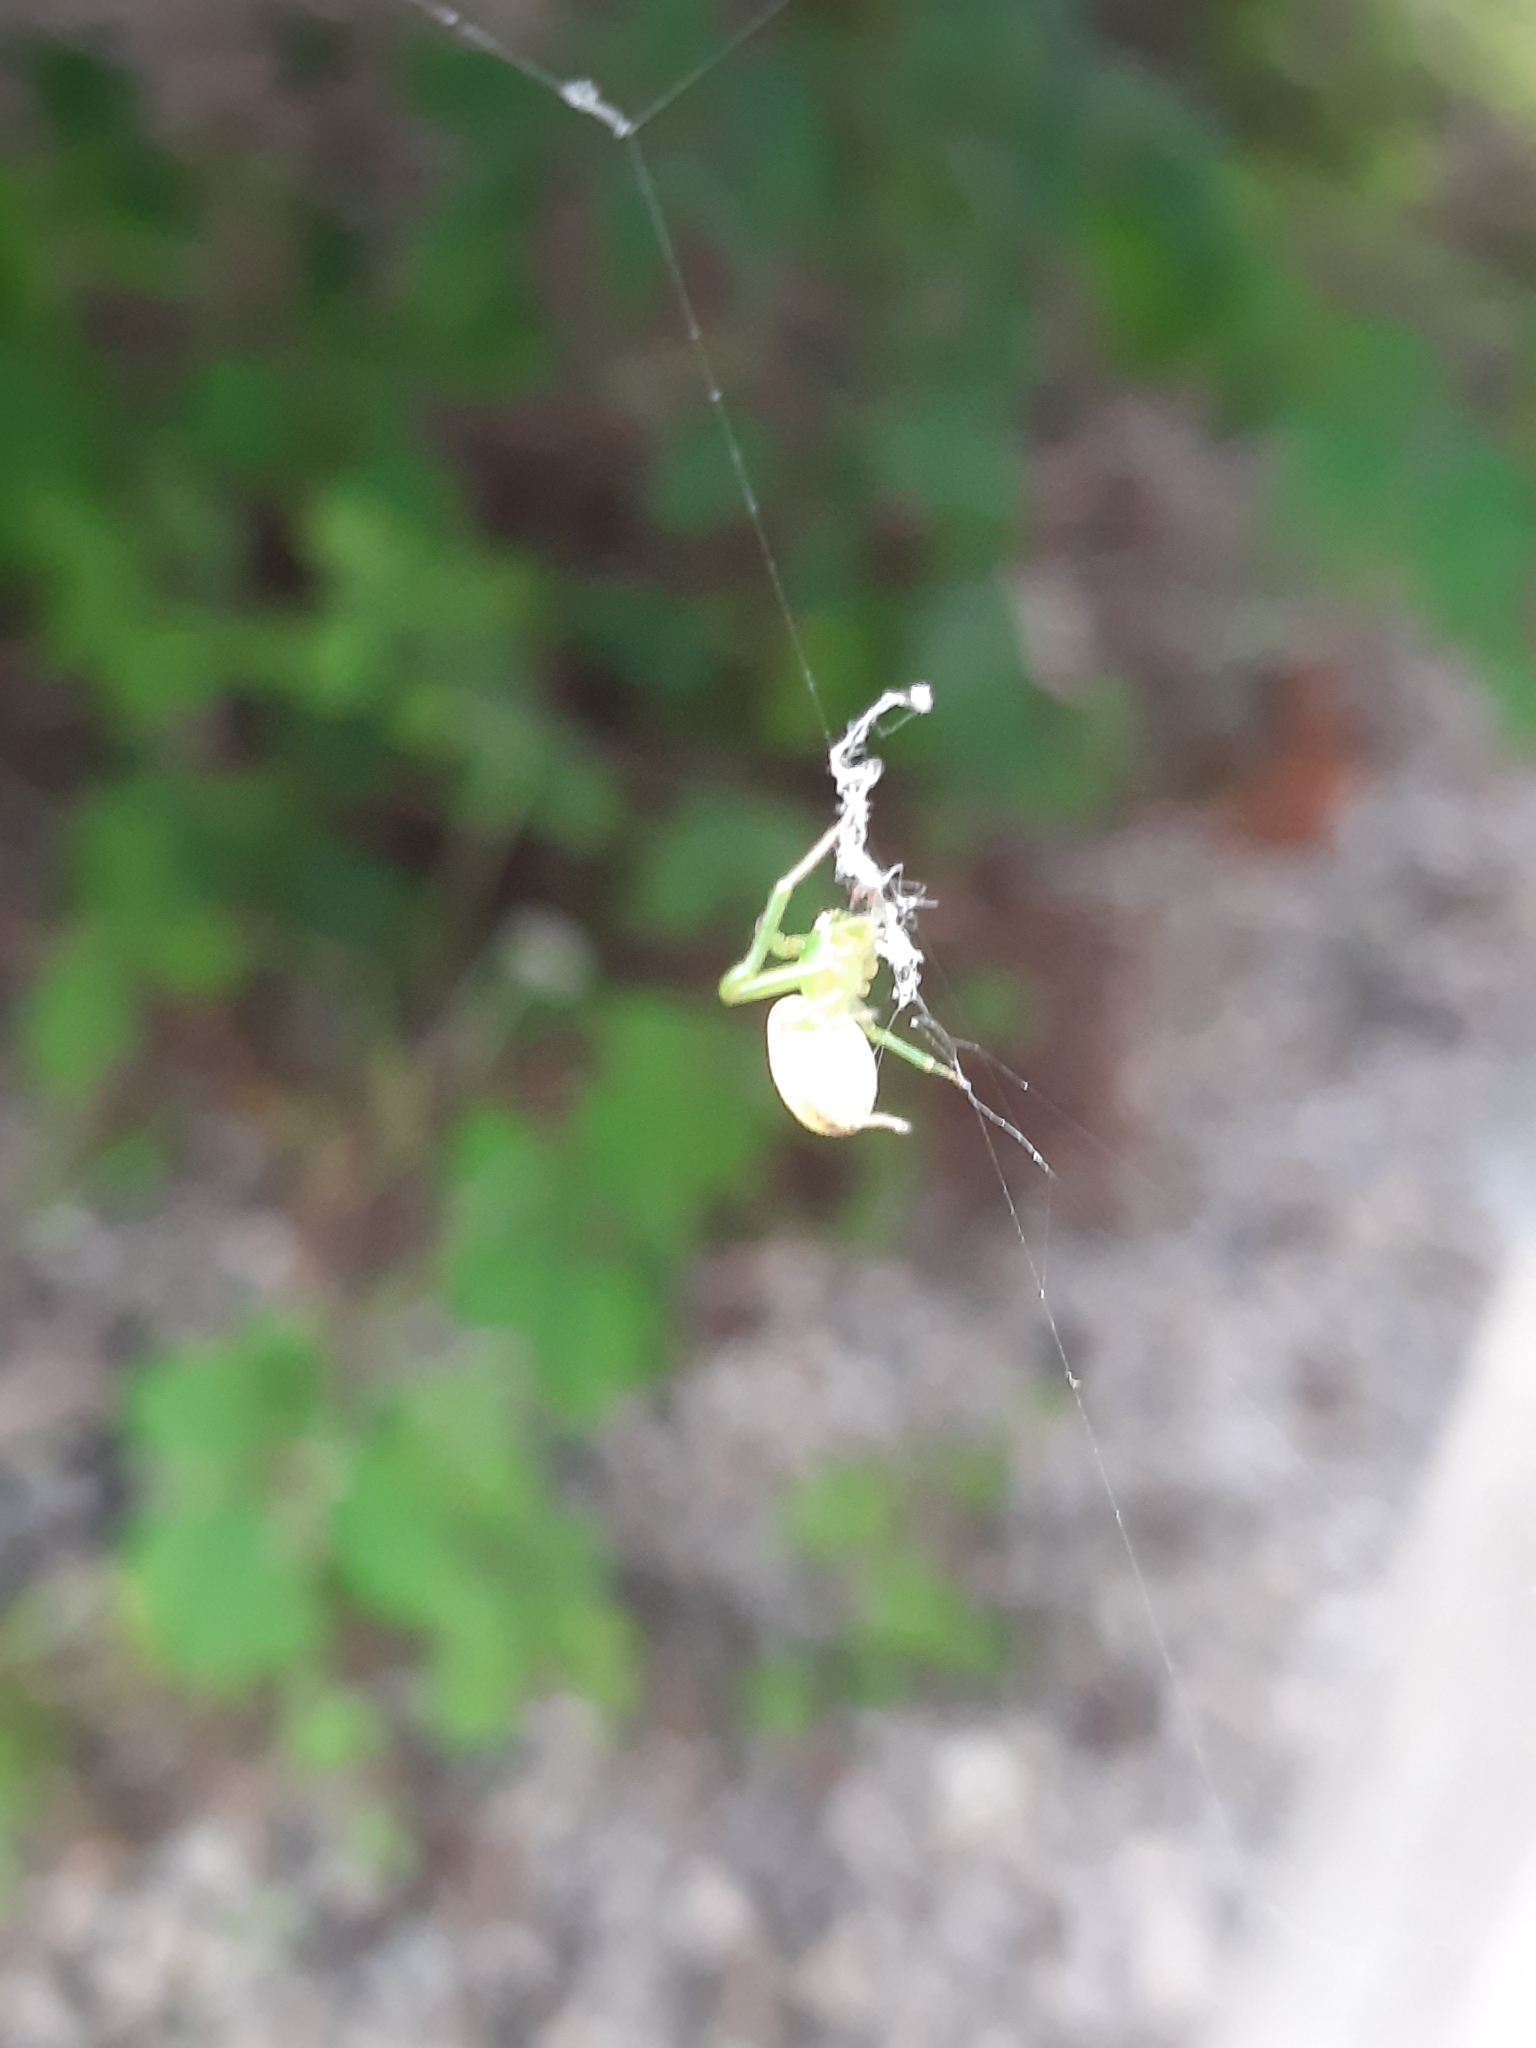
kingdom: Animalia
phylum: Arthropoda
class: Arachnida
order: Araneae
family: Thomisidae
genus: Diaea
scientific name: Diaea dorsata
